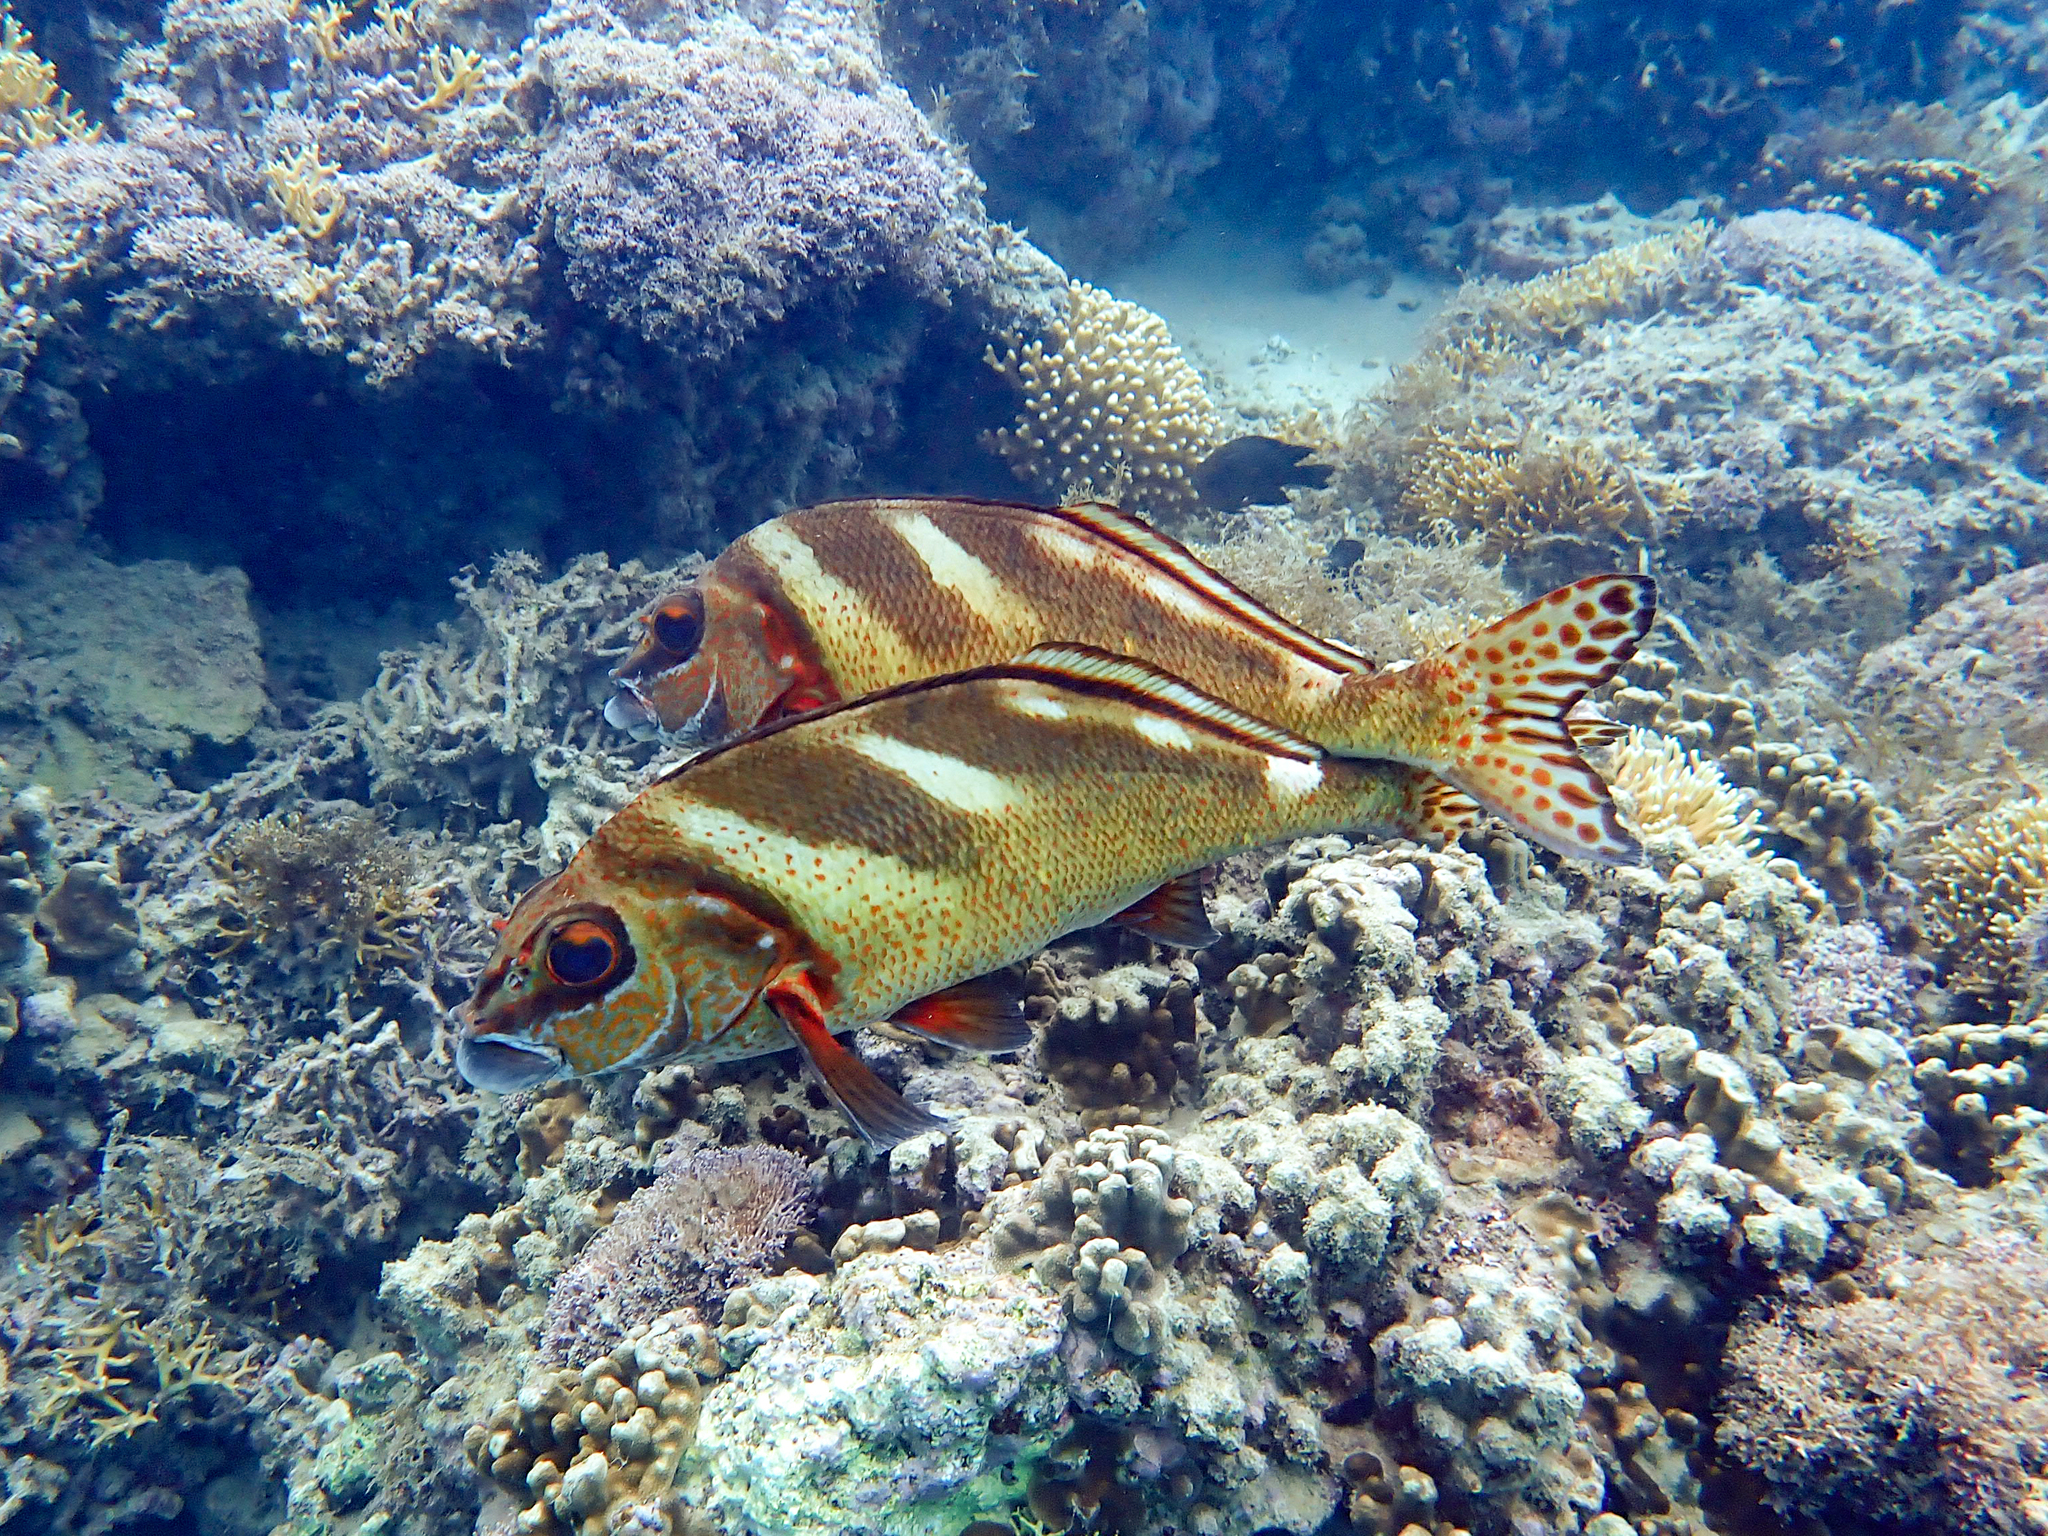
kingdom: Animalia
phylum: Chordata
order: Perciformes
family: Latridae
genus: Morwong
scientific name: Morwong ephippium
